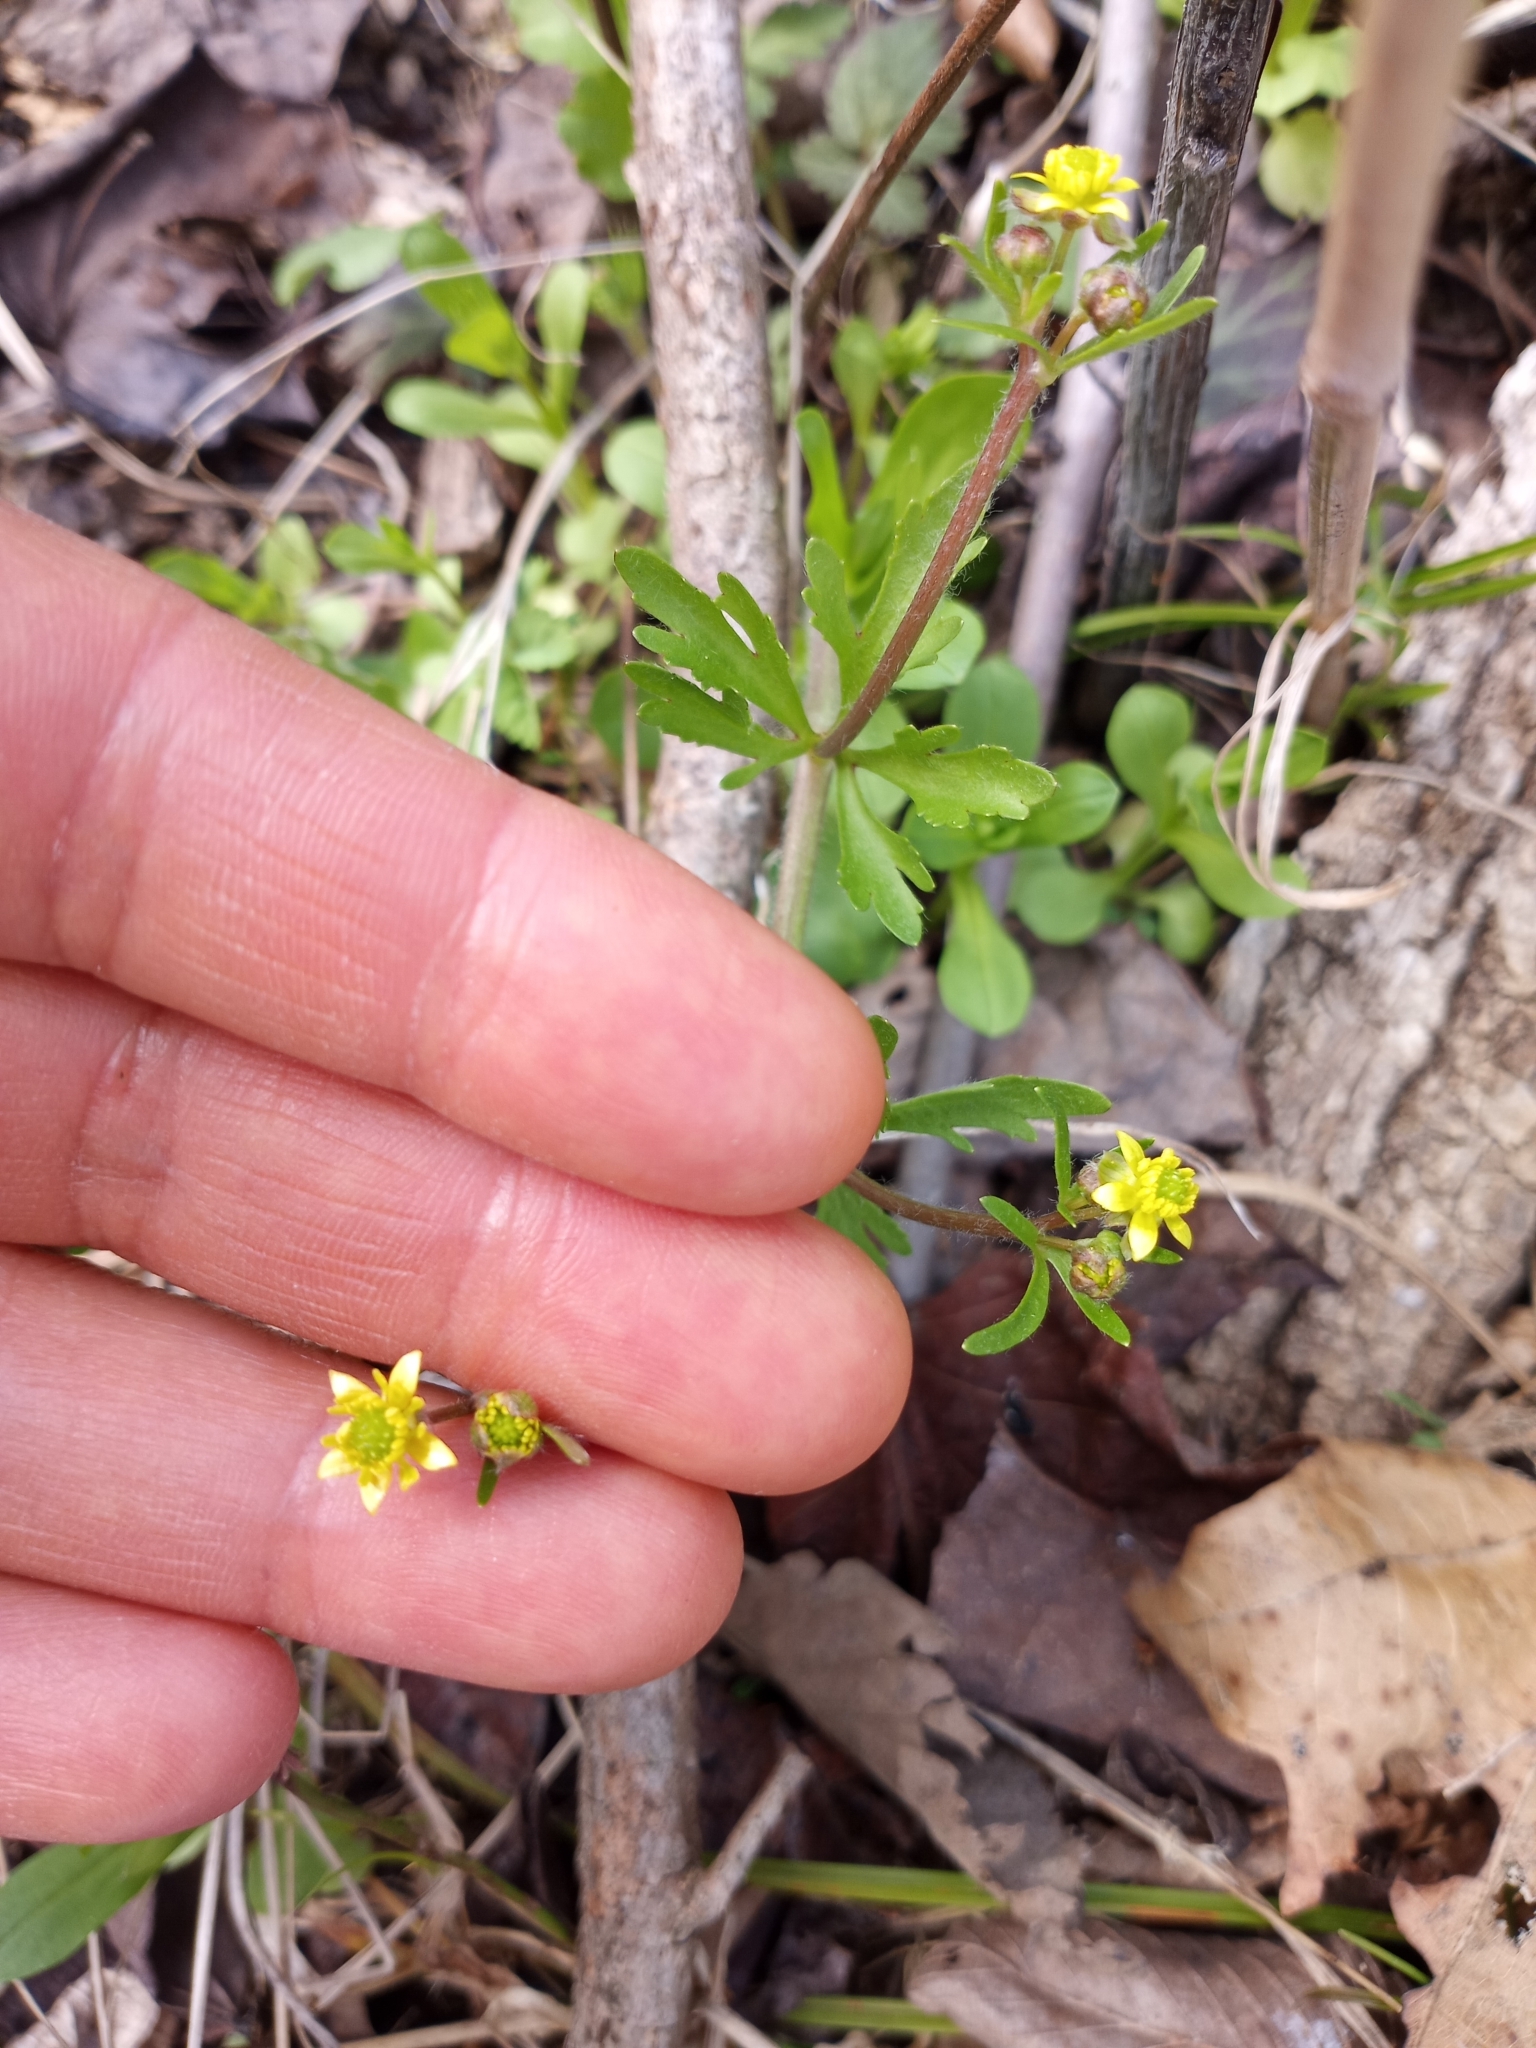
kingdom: Plantae
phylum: Tracheophyta
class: Magnoliopsida
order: Ranunculales
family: Ranunculaceae
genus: Ranunculus
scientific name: Ranunculus abortivus
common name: Early wood buttercup
